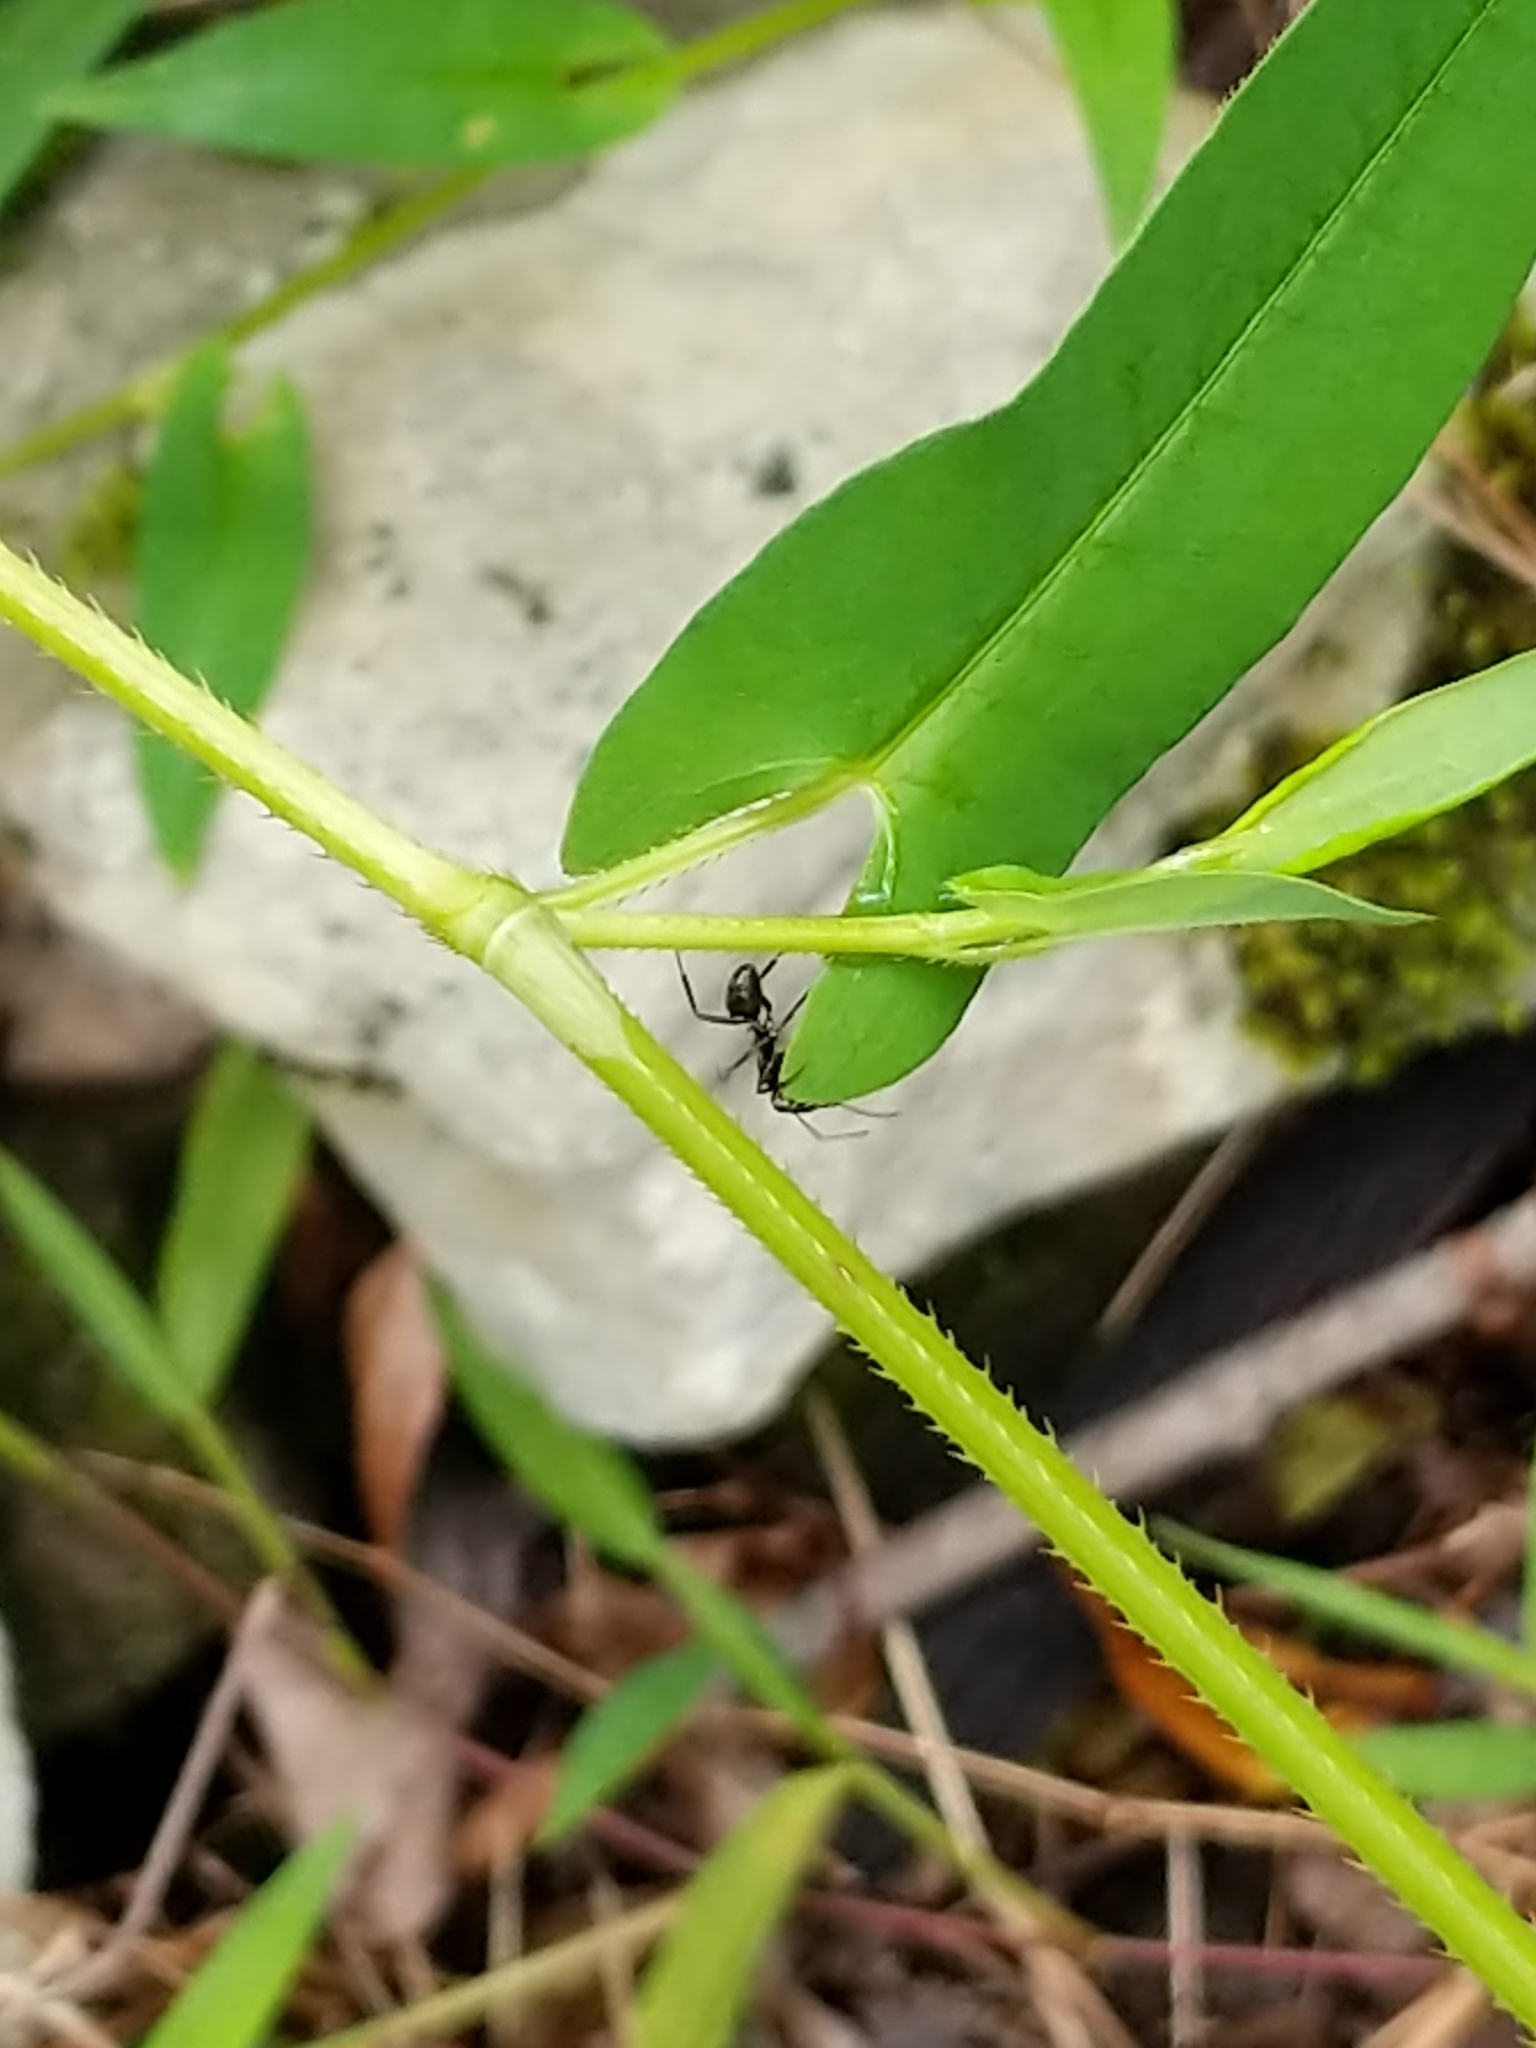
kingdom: Plantae
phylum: Tracheophyta
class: Magnoliopsida
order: Caryophyllales
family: Polygonaceae
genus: Persicaria
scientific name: Persicaria sagittata
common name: American tearthumb
